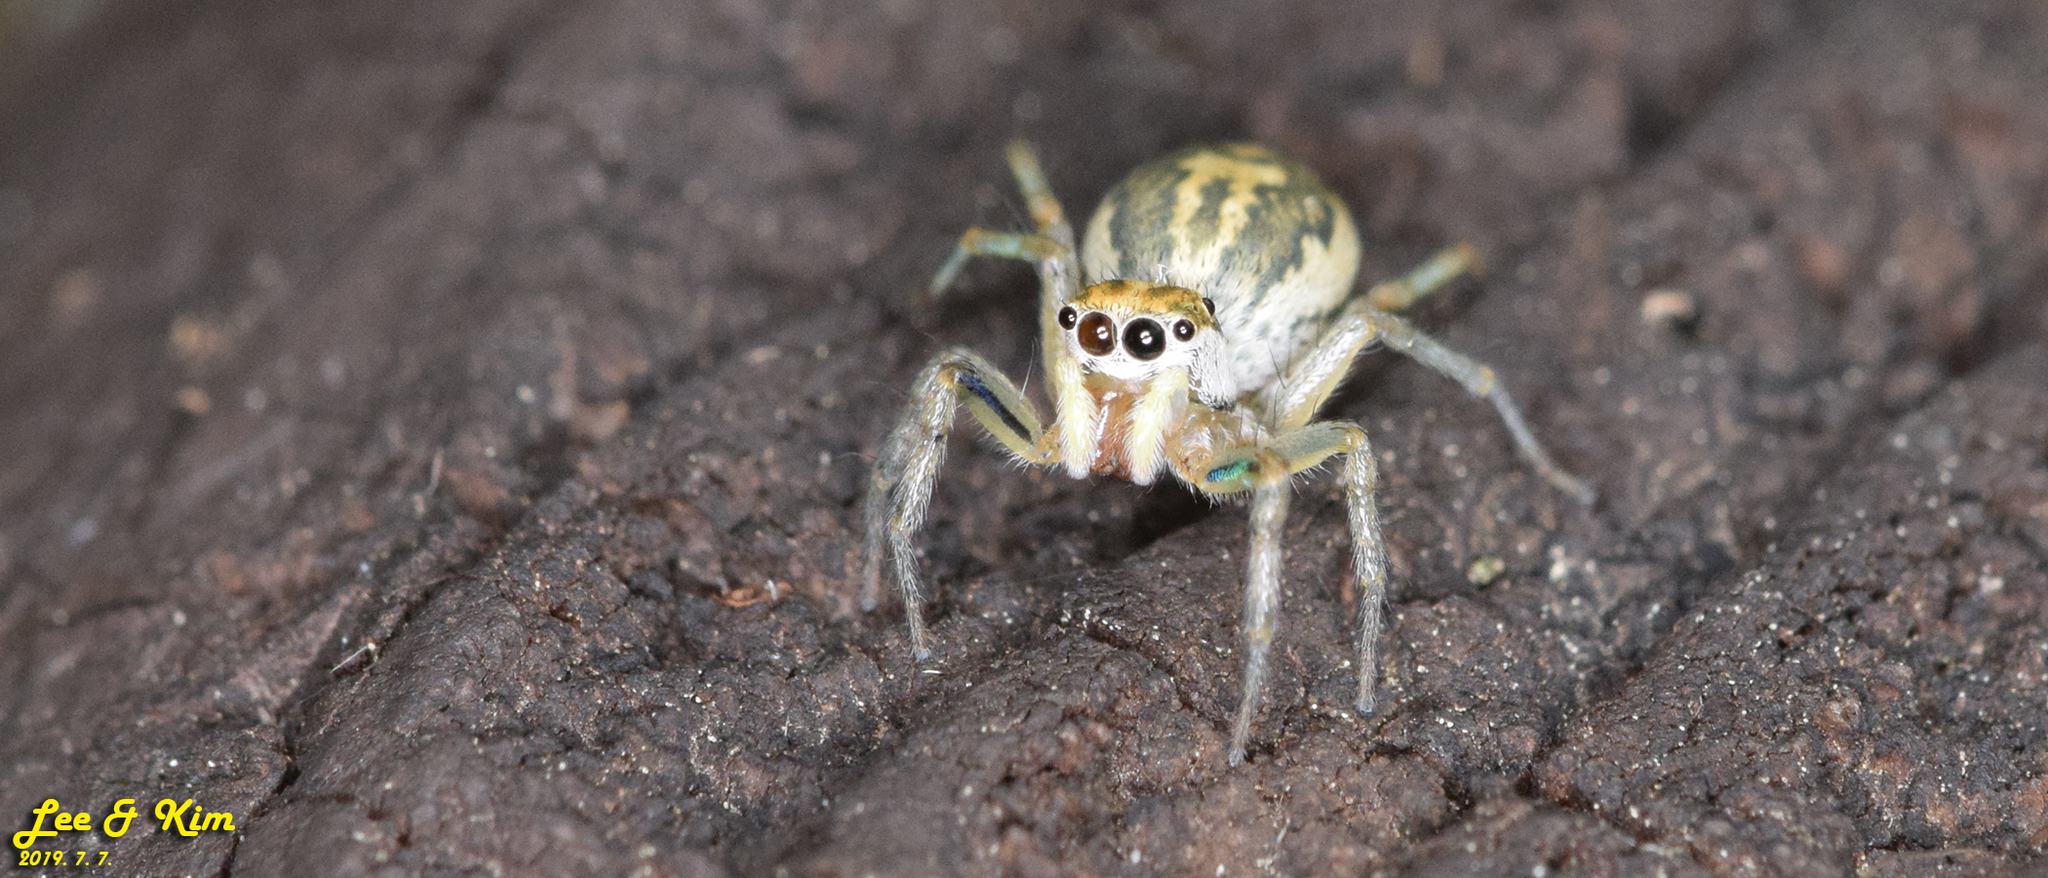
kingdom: Animalia
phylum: Arthropoda
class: Arachnida
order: Araneae
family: Salticidae
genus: Phintella
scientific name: Phintella abnormis
